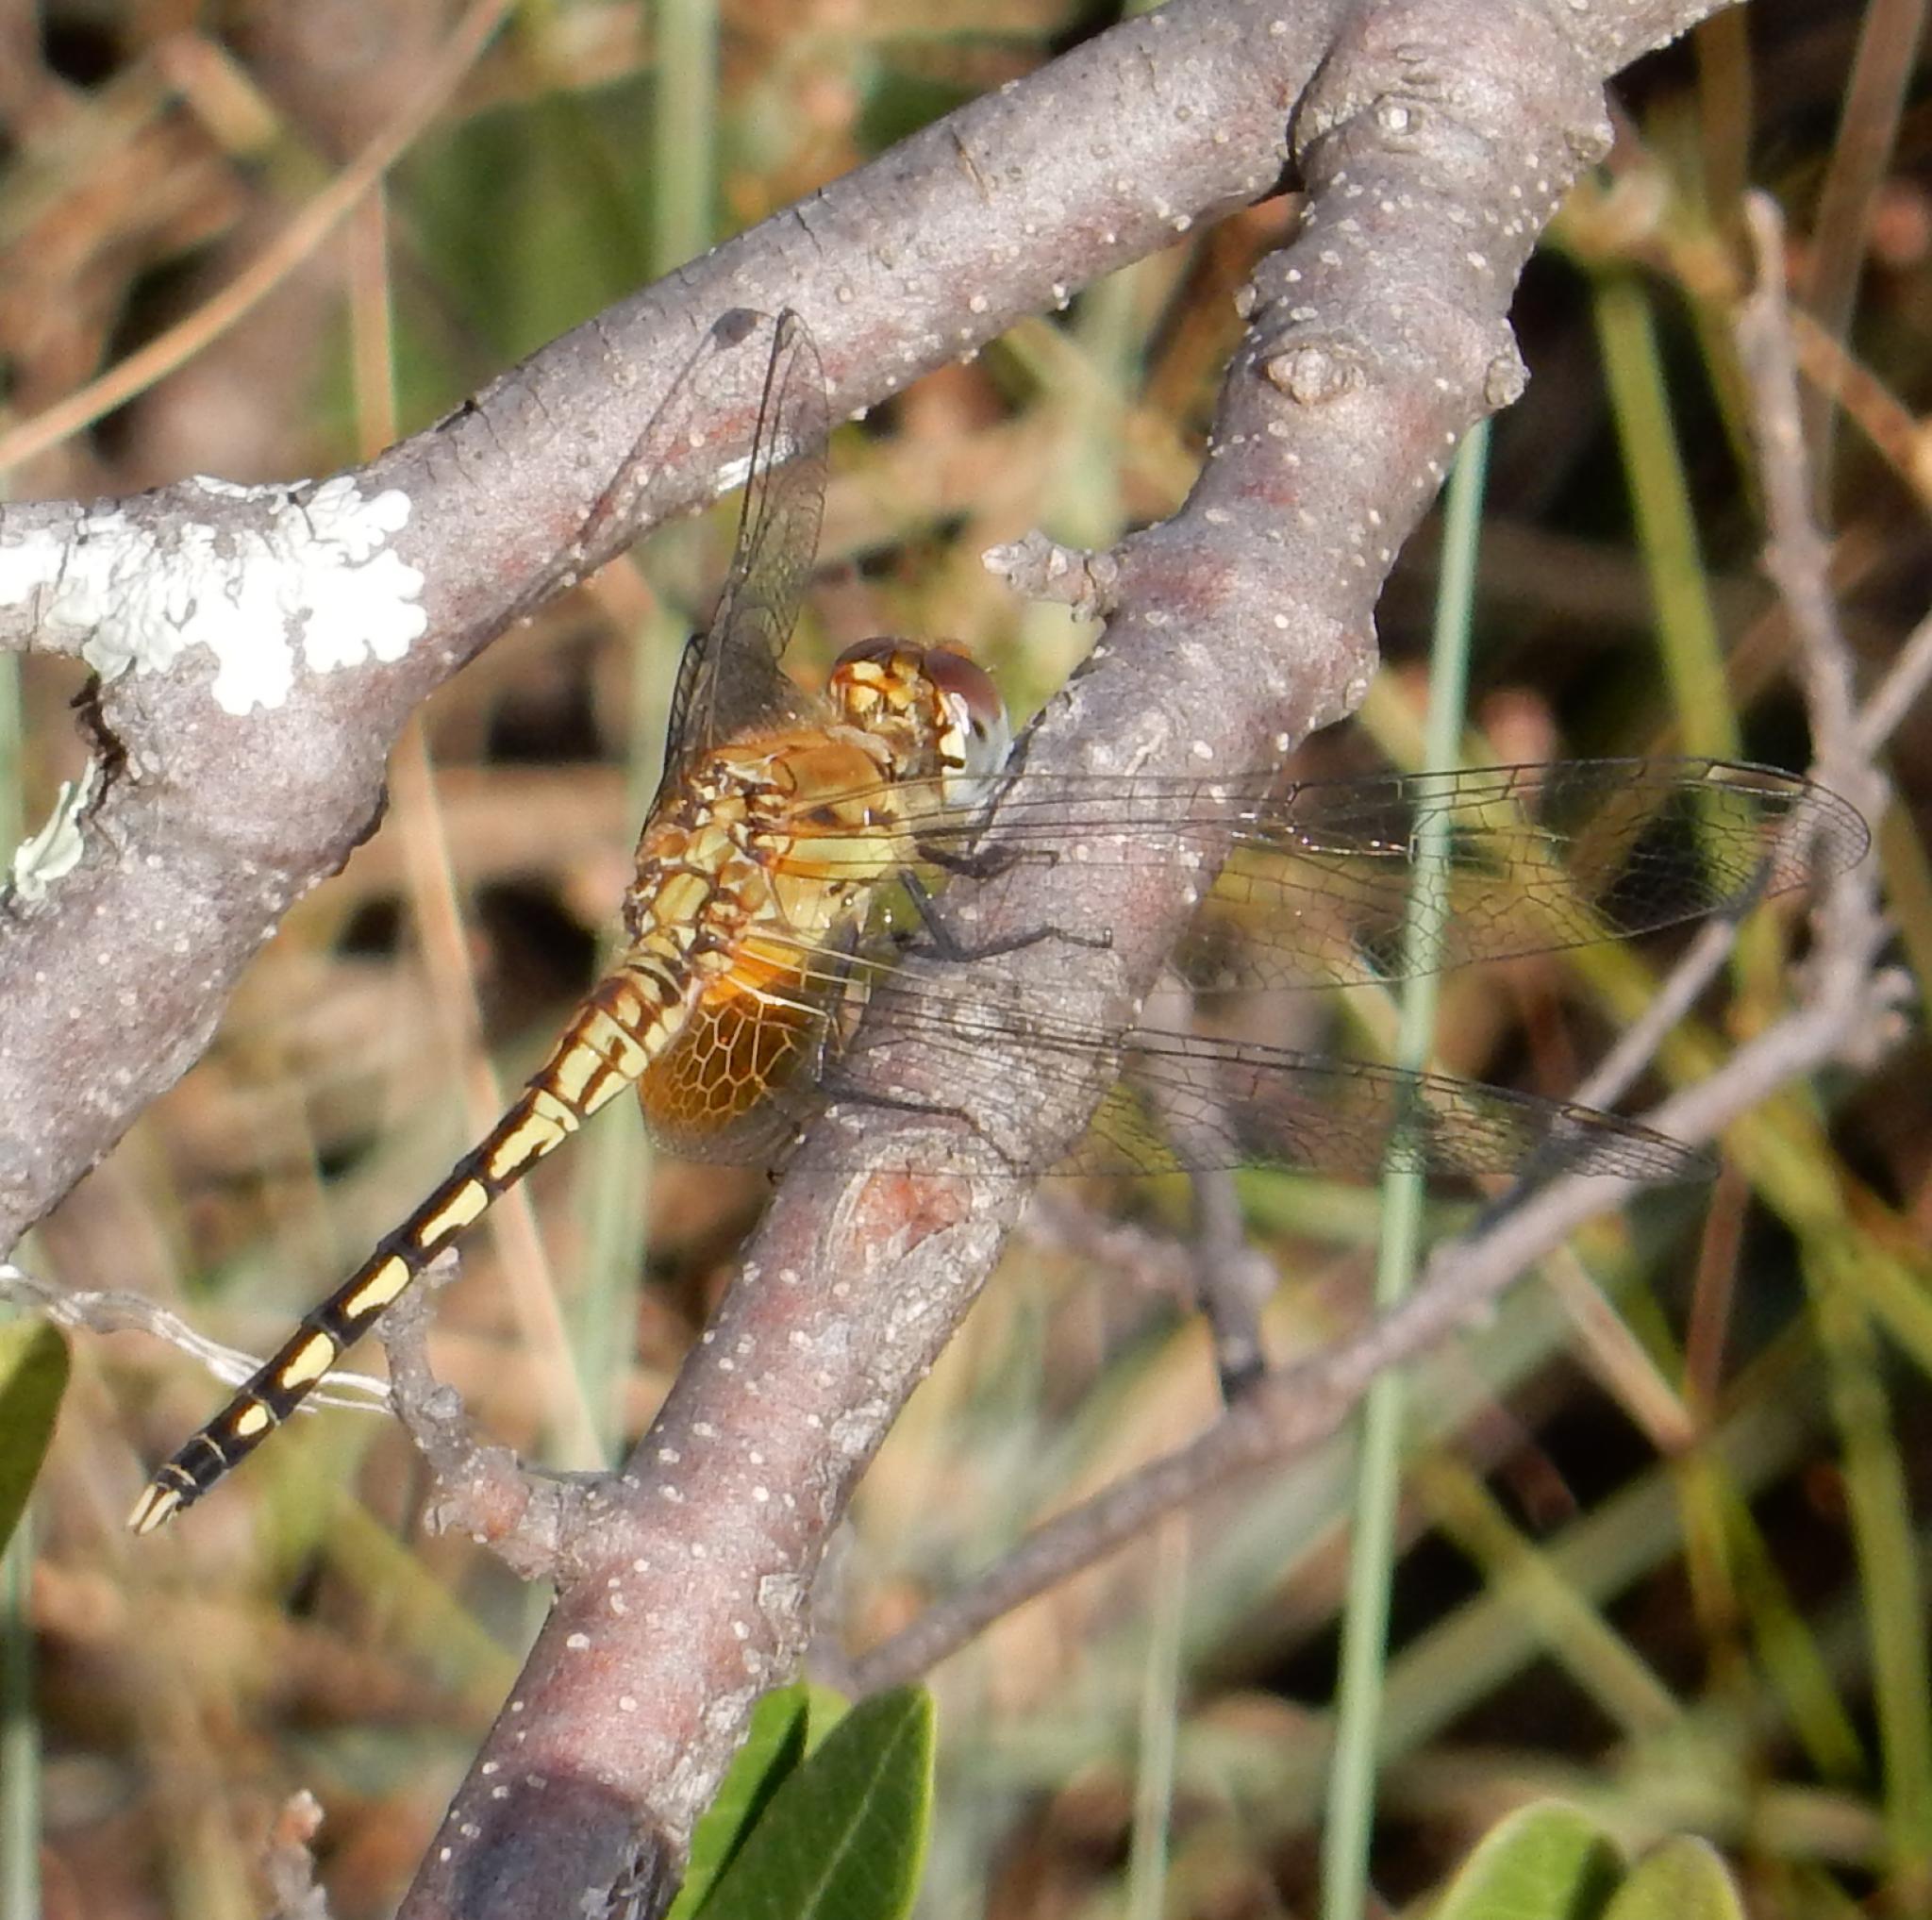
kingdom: Animalia
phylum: Arthropoda
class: Insecta
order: Odonata
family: Libellulidae
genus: Diplacodes
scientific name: Diplacodes luminans
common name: Barbet percher
